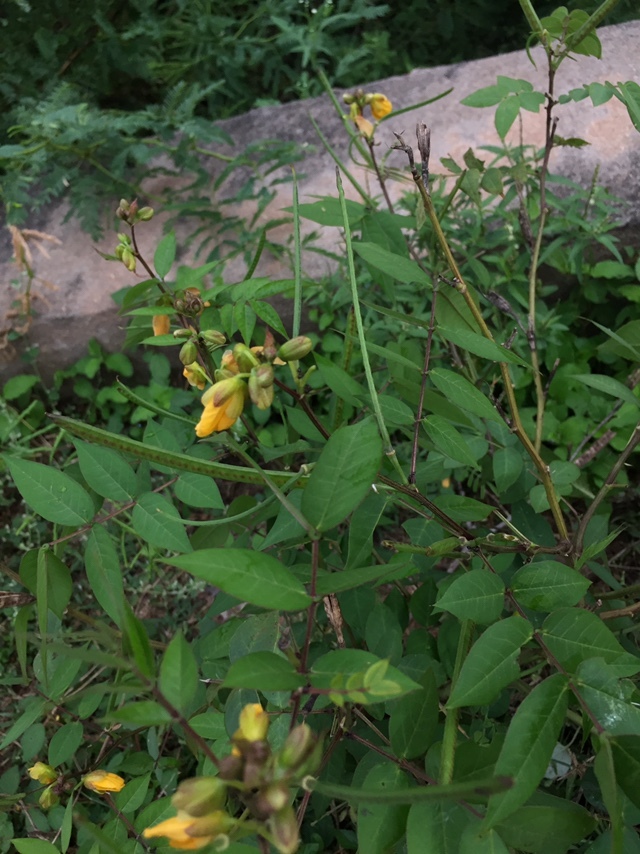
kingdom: Plantae
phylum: Tracheophyta
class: Magnoliopsida
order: Fabales
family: Fabaceae
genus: Senna
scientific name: Senna occidentalis
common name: Septicweed
